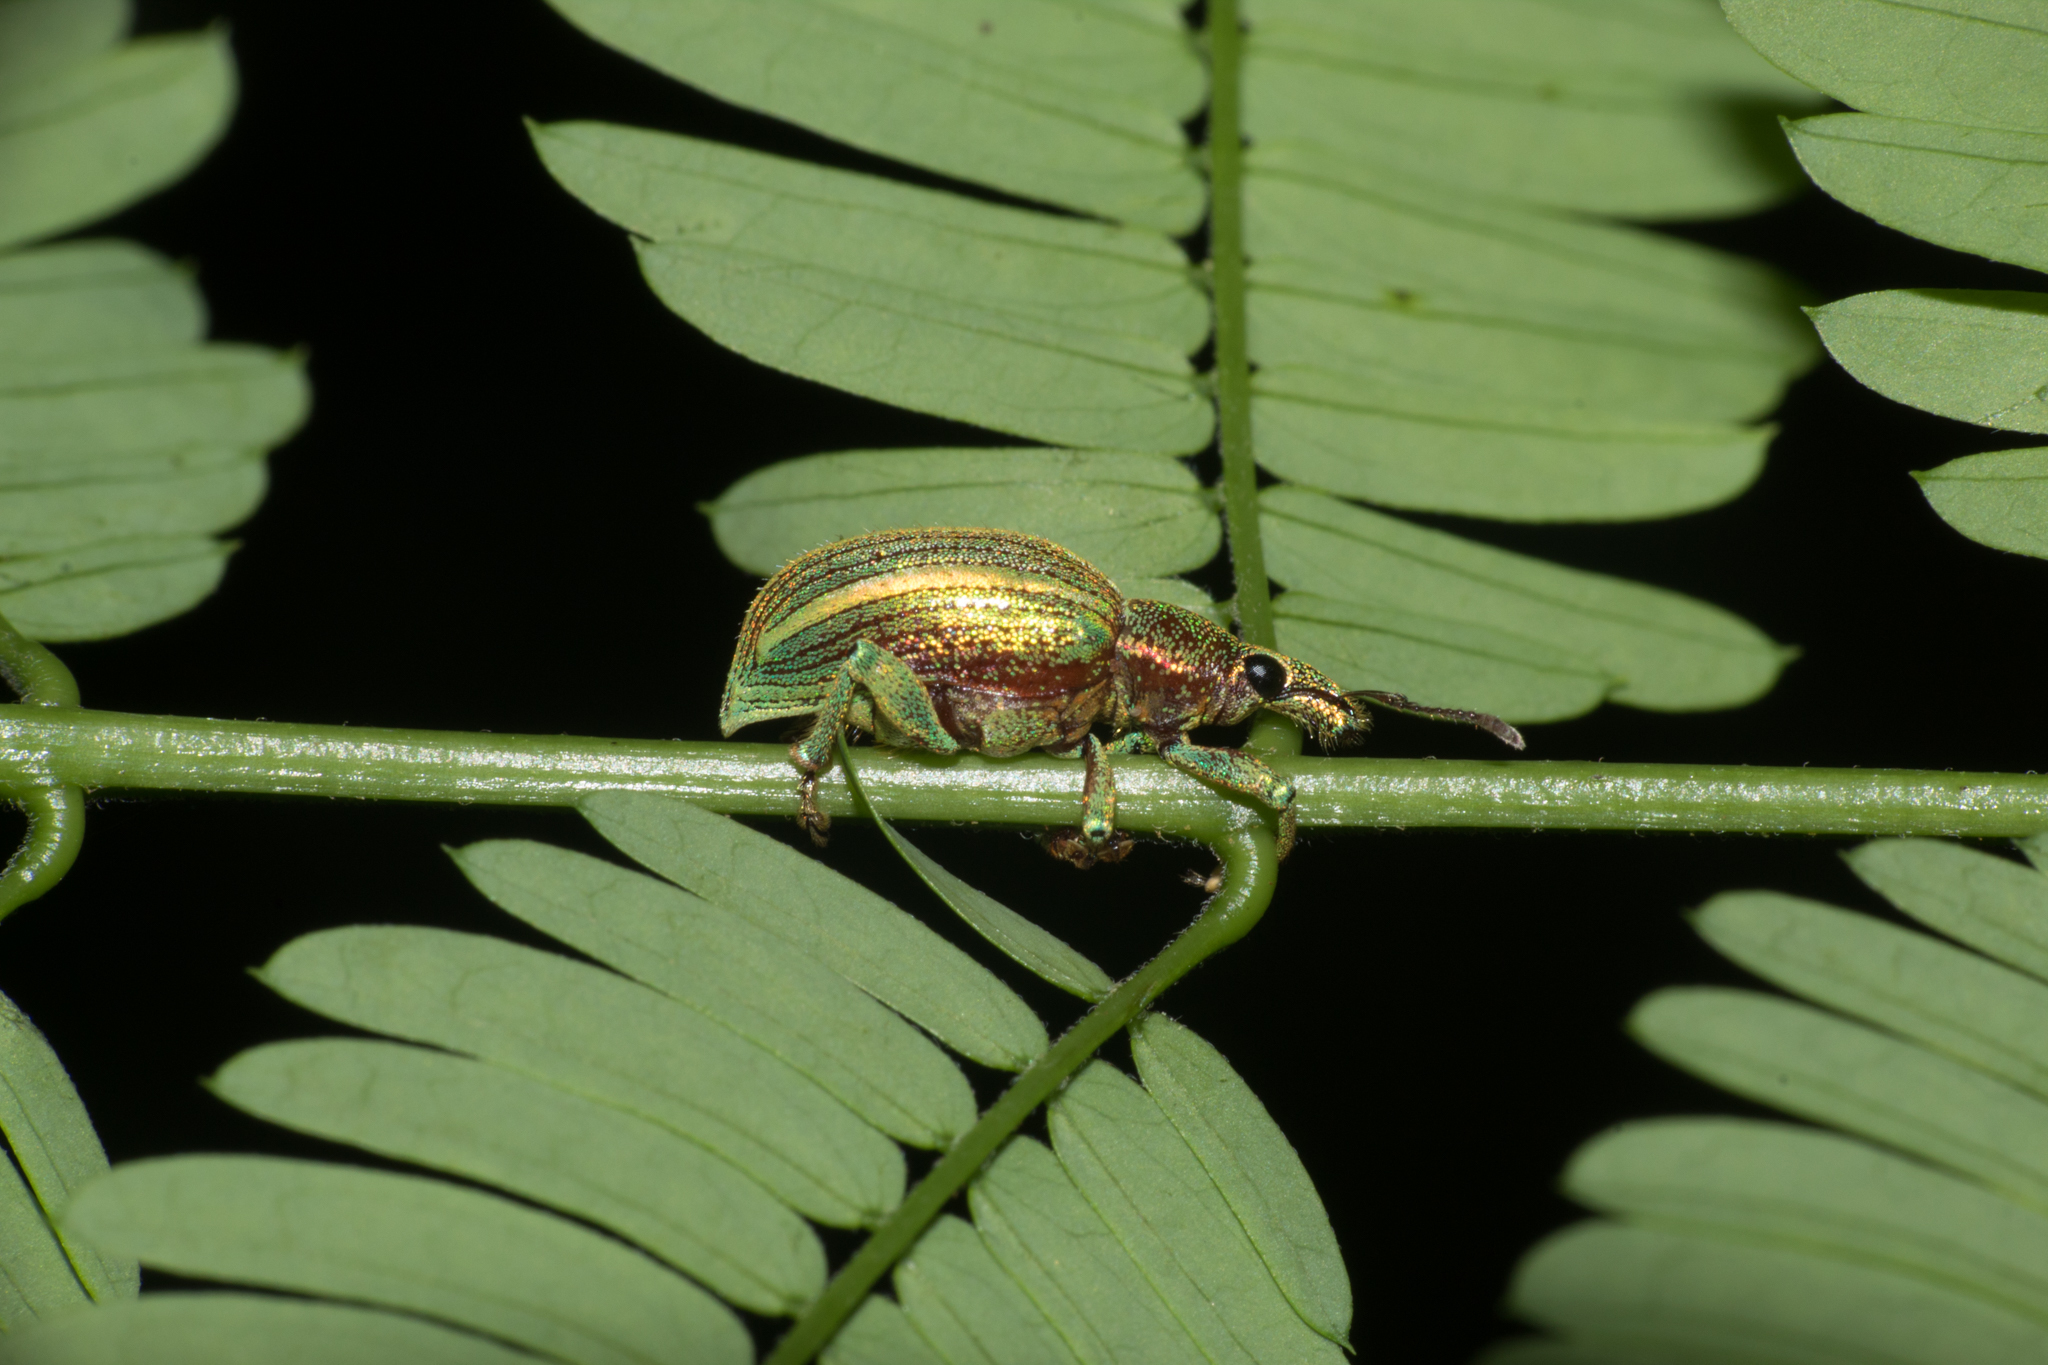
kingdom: Animalia
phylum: Arthropoda
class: Insecta
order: Coleoptera
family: Curculionidae
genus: Phaopsis
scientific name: Phaopsis laetus
